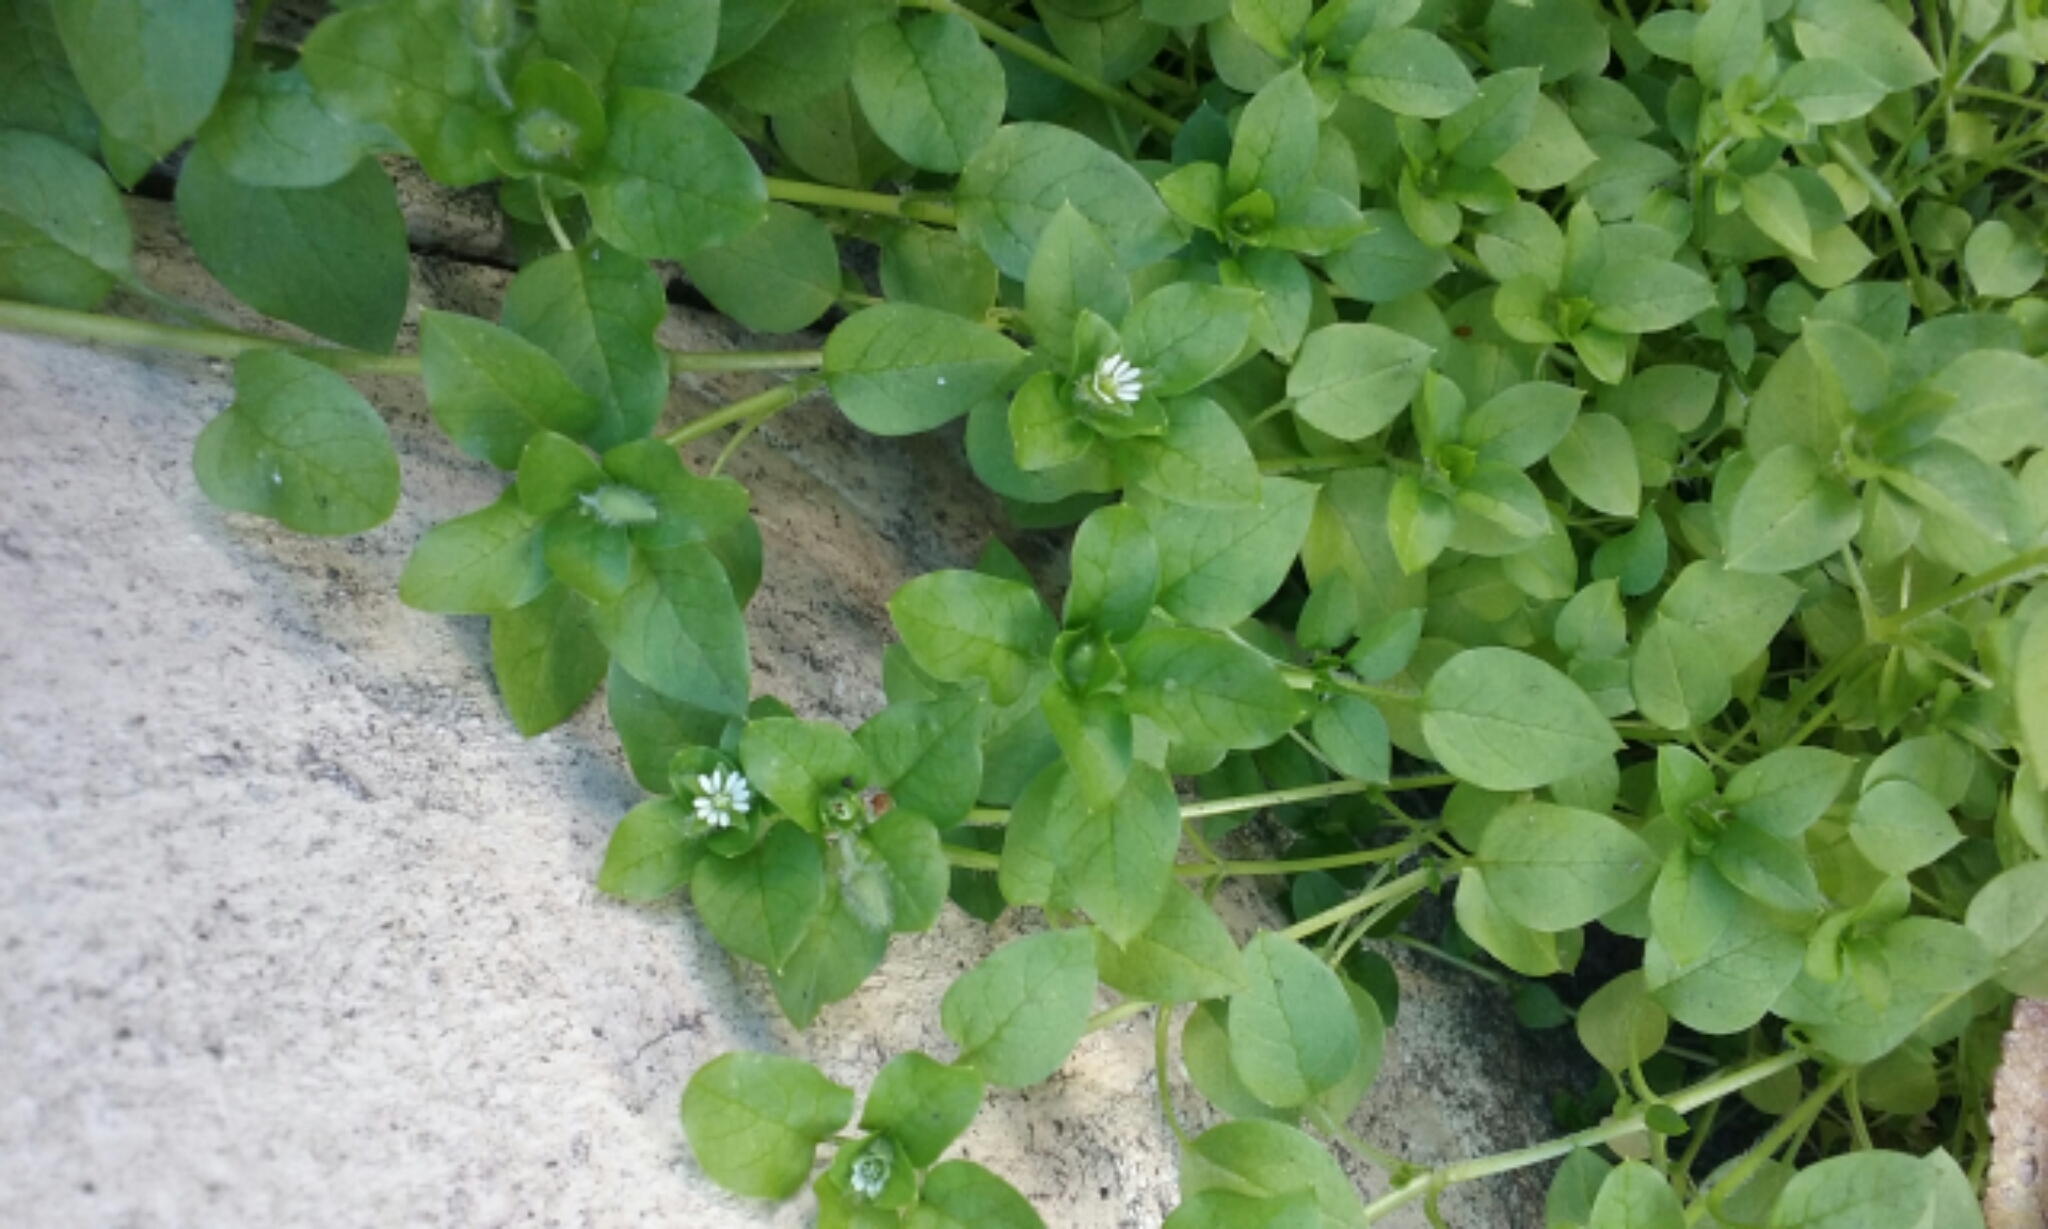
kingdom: Plantae
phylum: Tracheophyta
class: Magnoliopsida
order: Caryophyllales
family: Caryophyllaceae
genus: Stellaria
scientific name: Stellaria media
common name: Common chickweed
